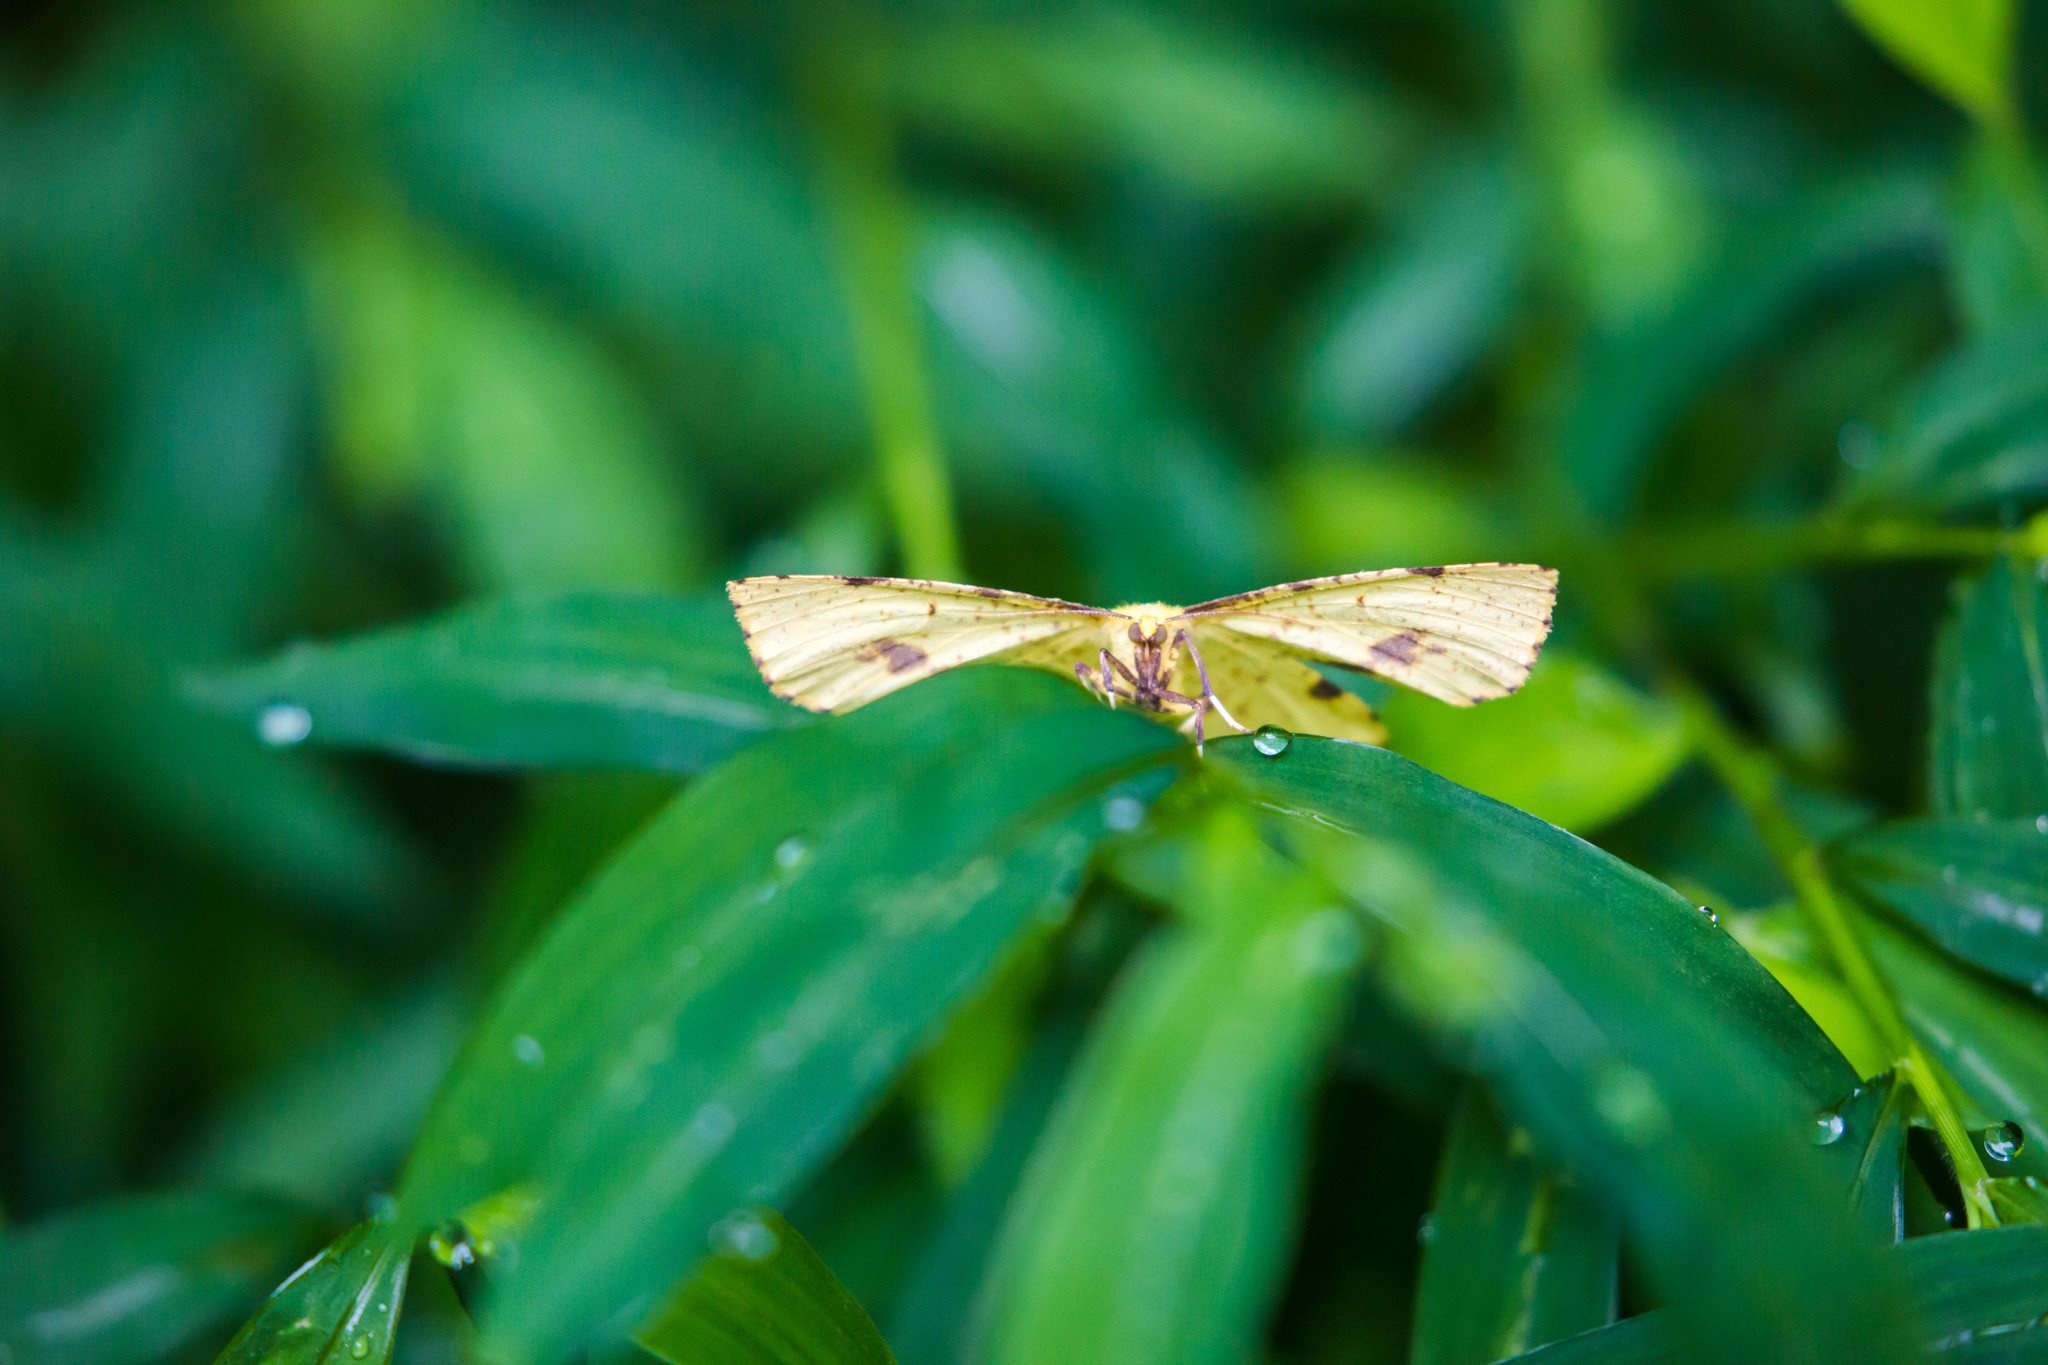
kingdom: Animalia
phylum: Arthropoda
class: Insecta
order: Lepidoptera
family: Geometridae
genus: Xanthotype
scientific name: Xanthotype
